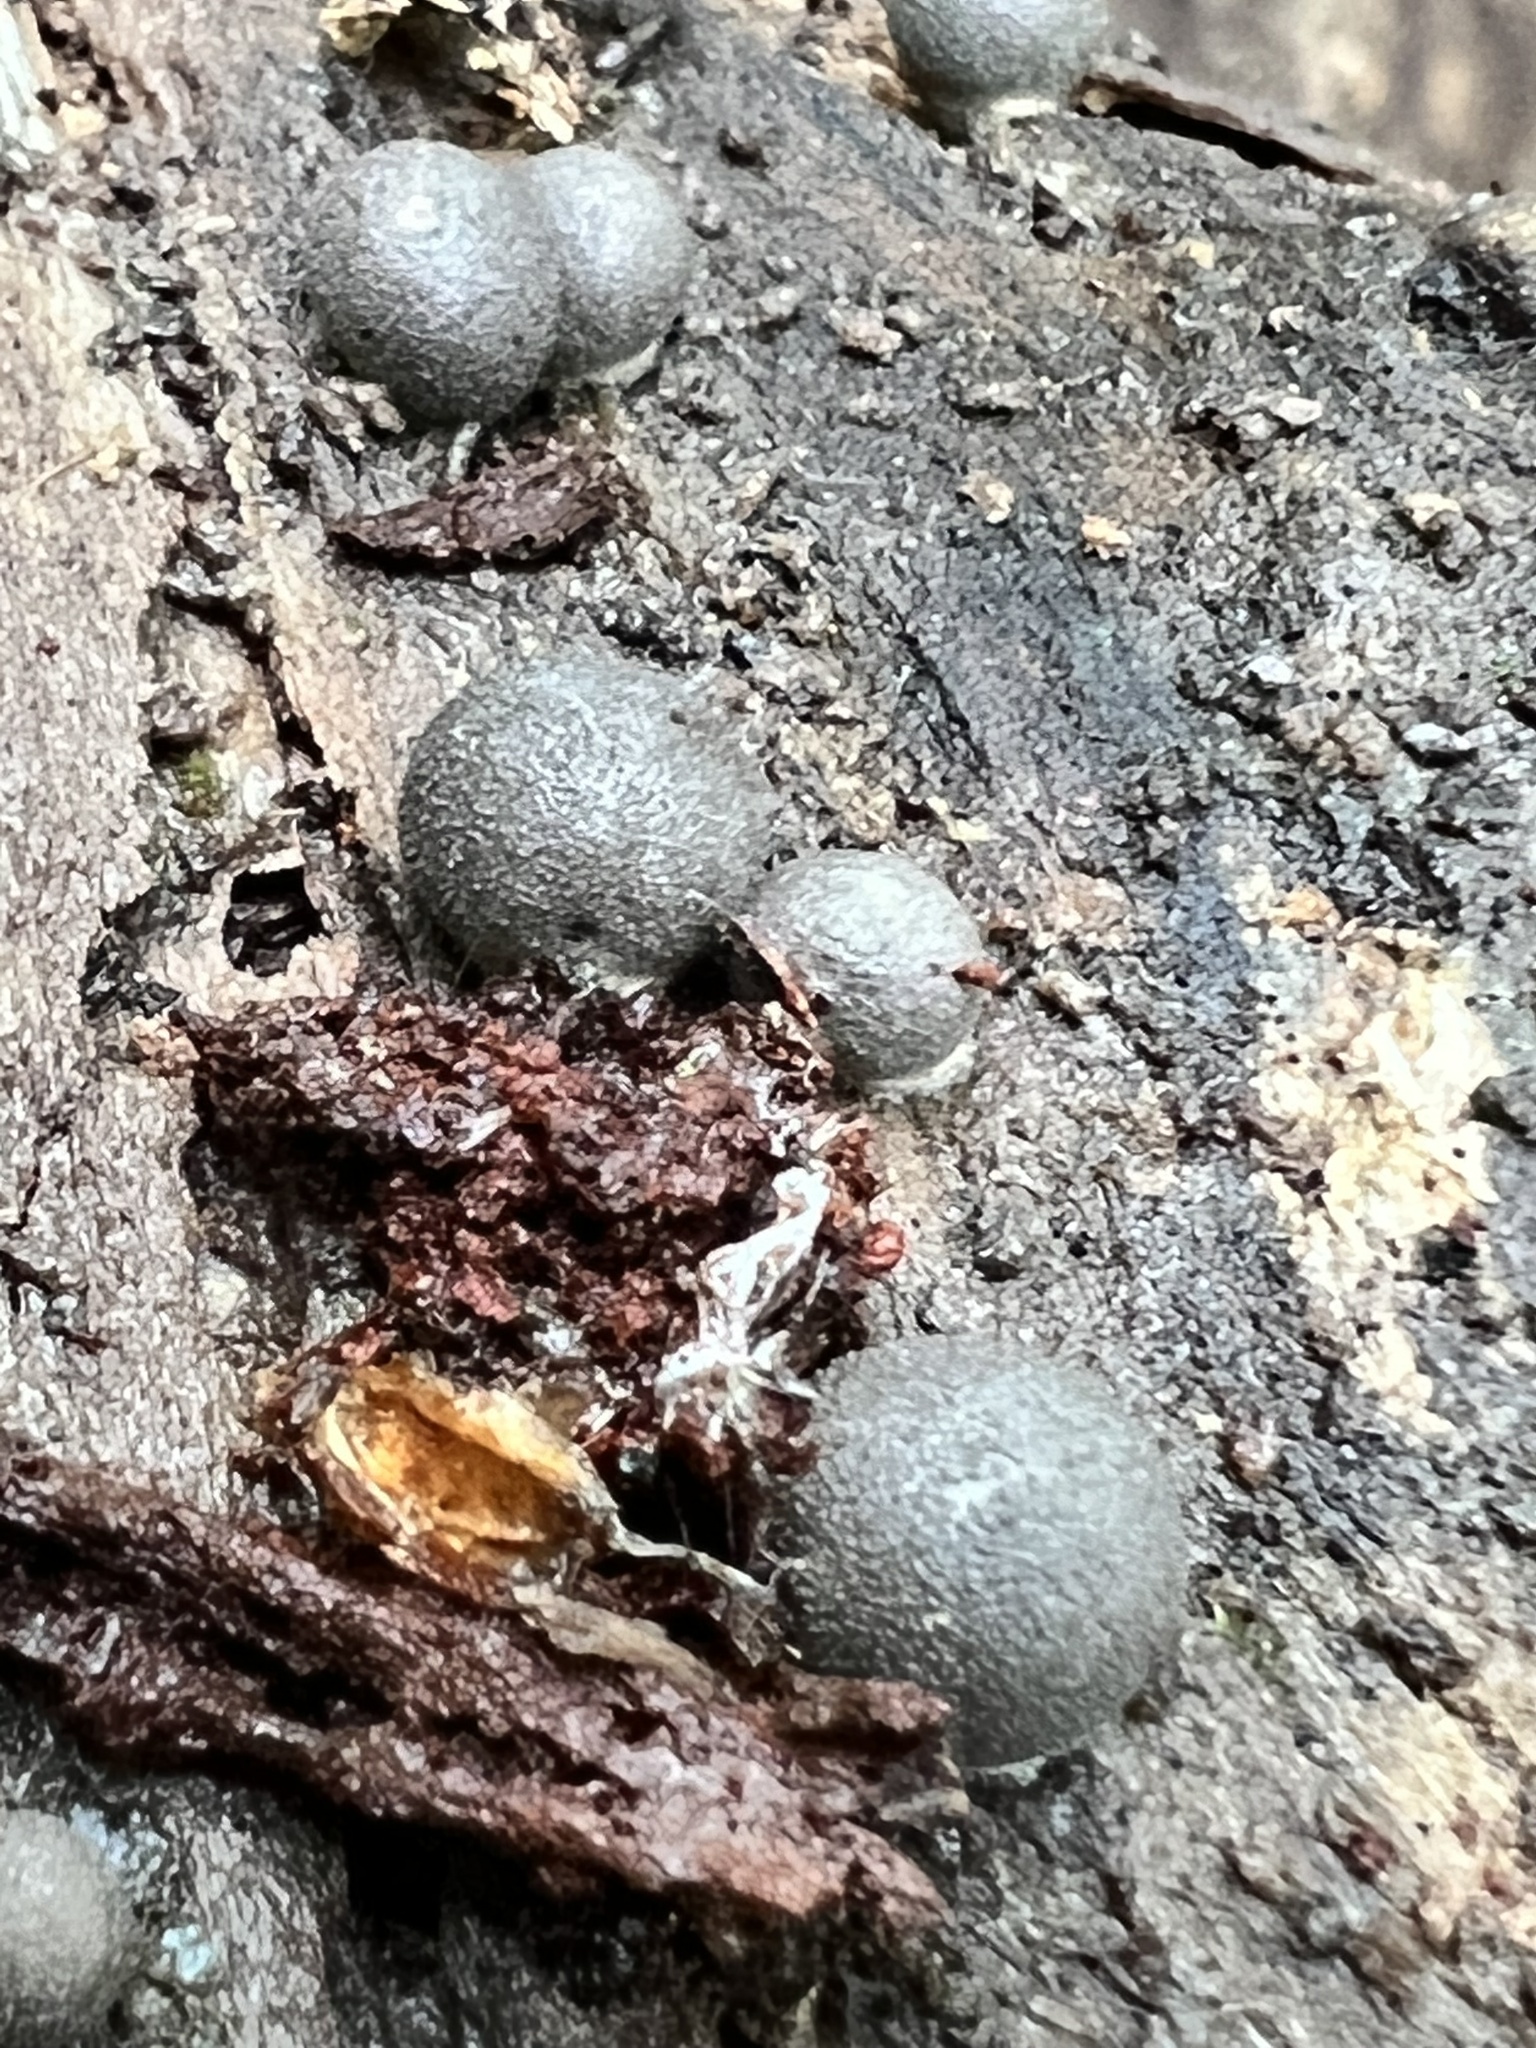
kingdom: Protozoa
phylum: Mycetozoa
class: Myxomycetes
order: Cribrariales
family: Tubiferaceae
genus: Lycogala
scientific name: Lycogala epidendrum
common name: Wolf's milk
